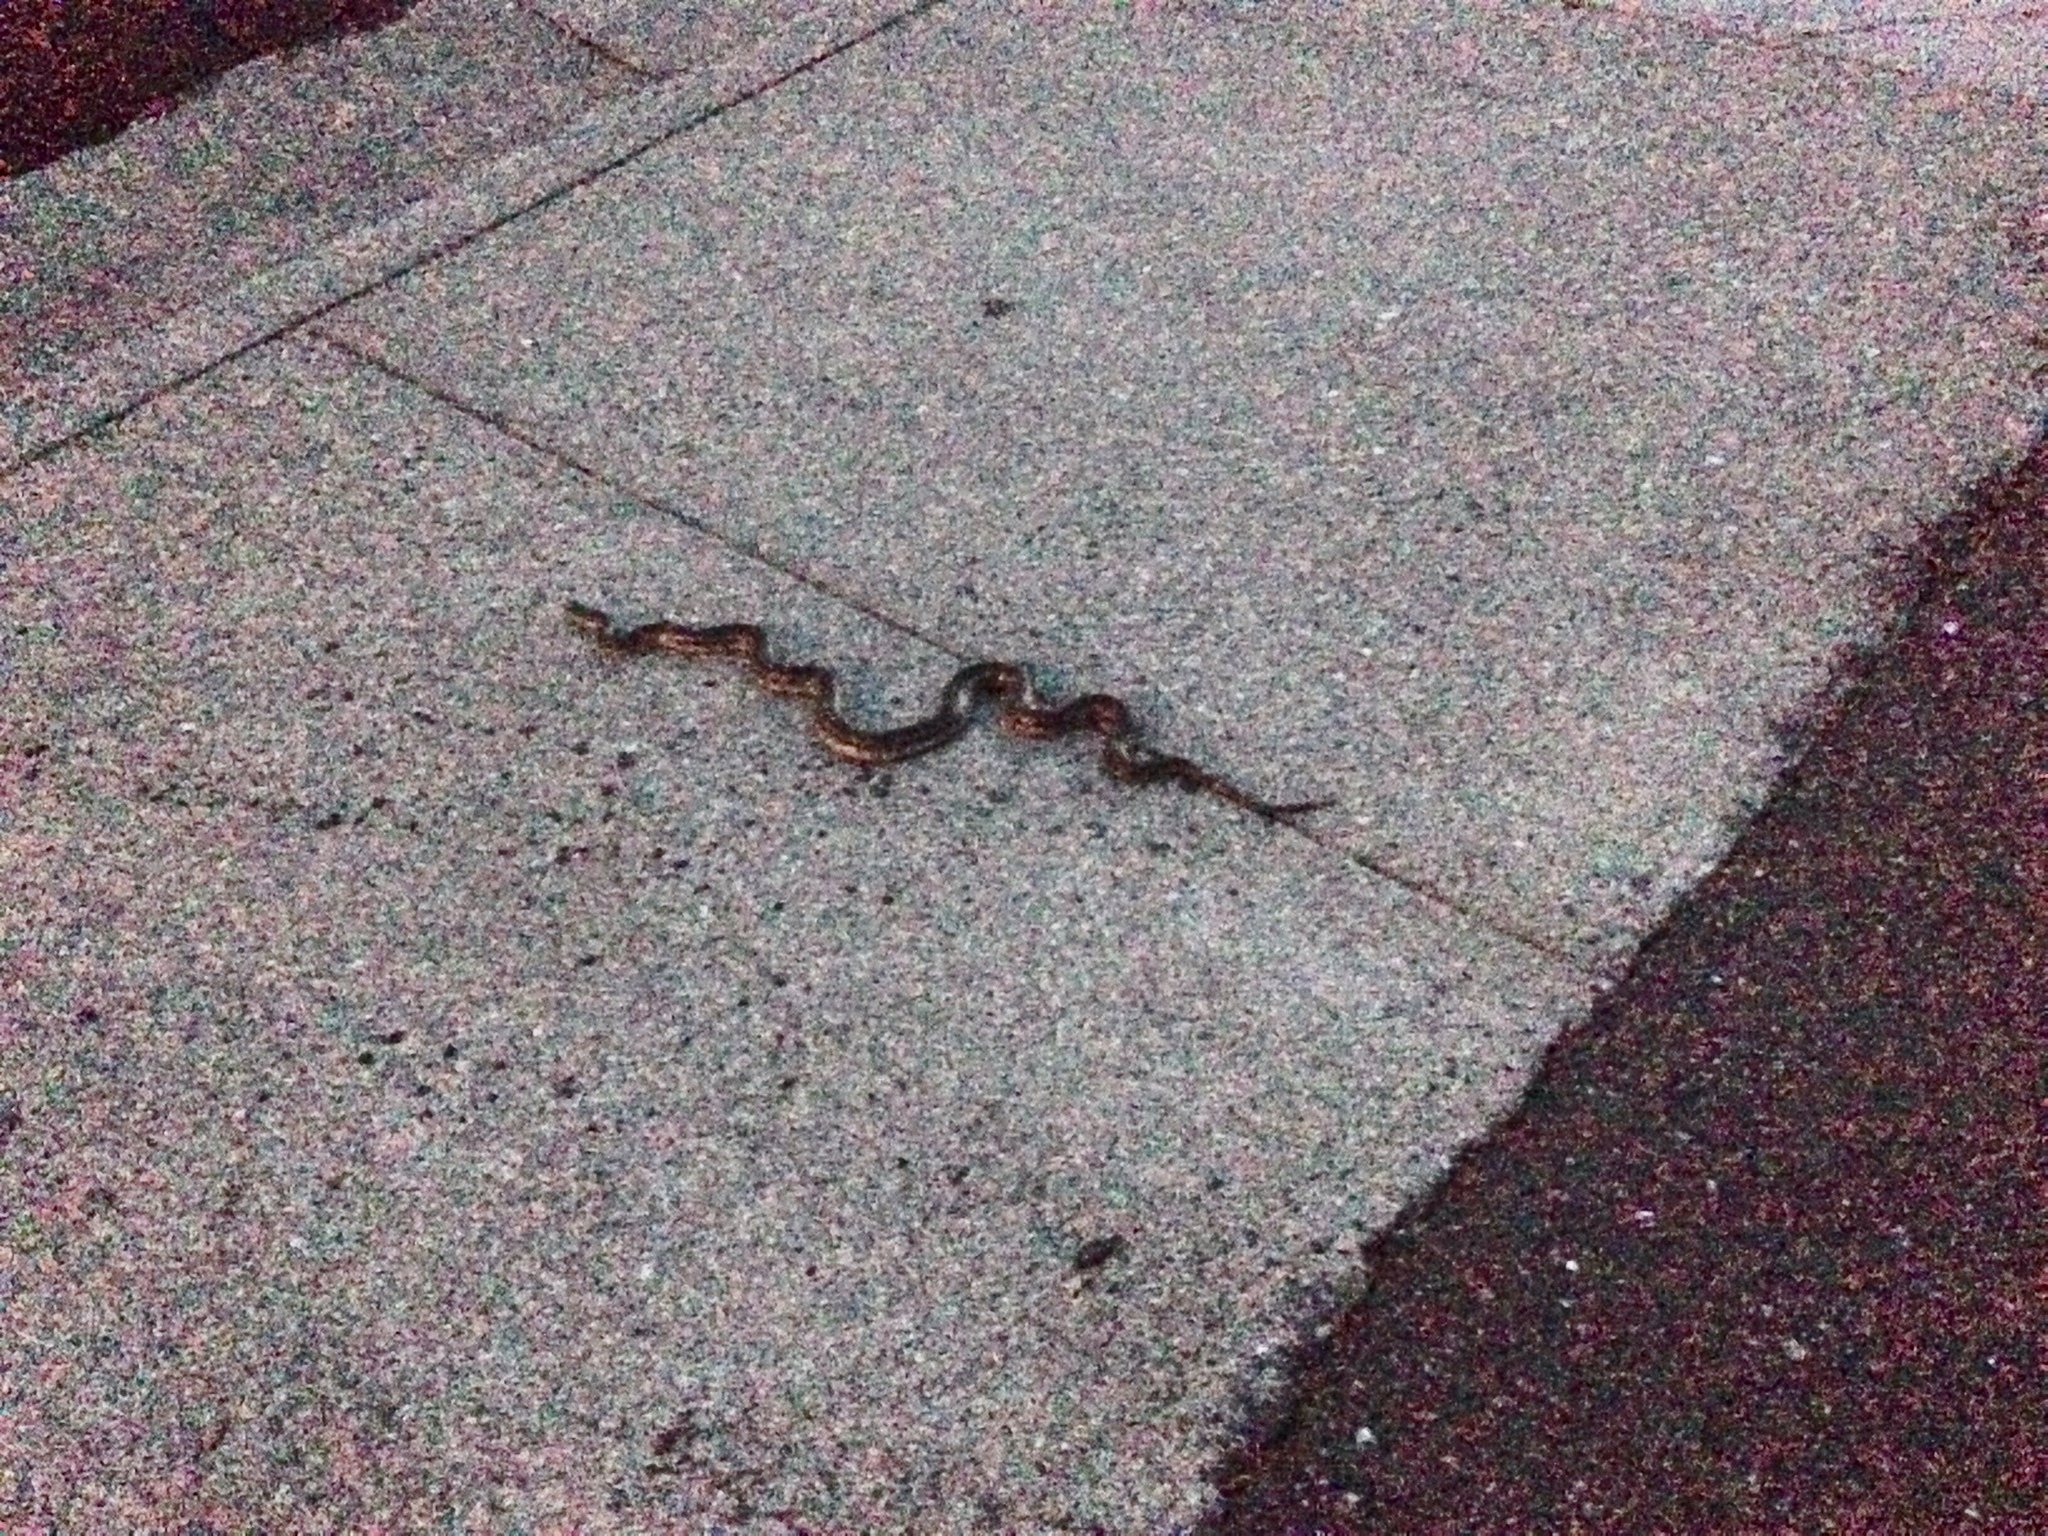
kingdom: Animalia
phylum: Chordata
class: Squamata
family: Colubridae
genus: Pituophis
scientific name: Pituophis catenifer
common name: Gopher snake
